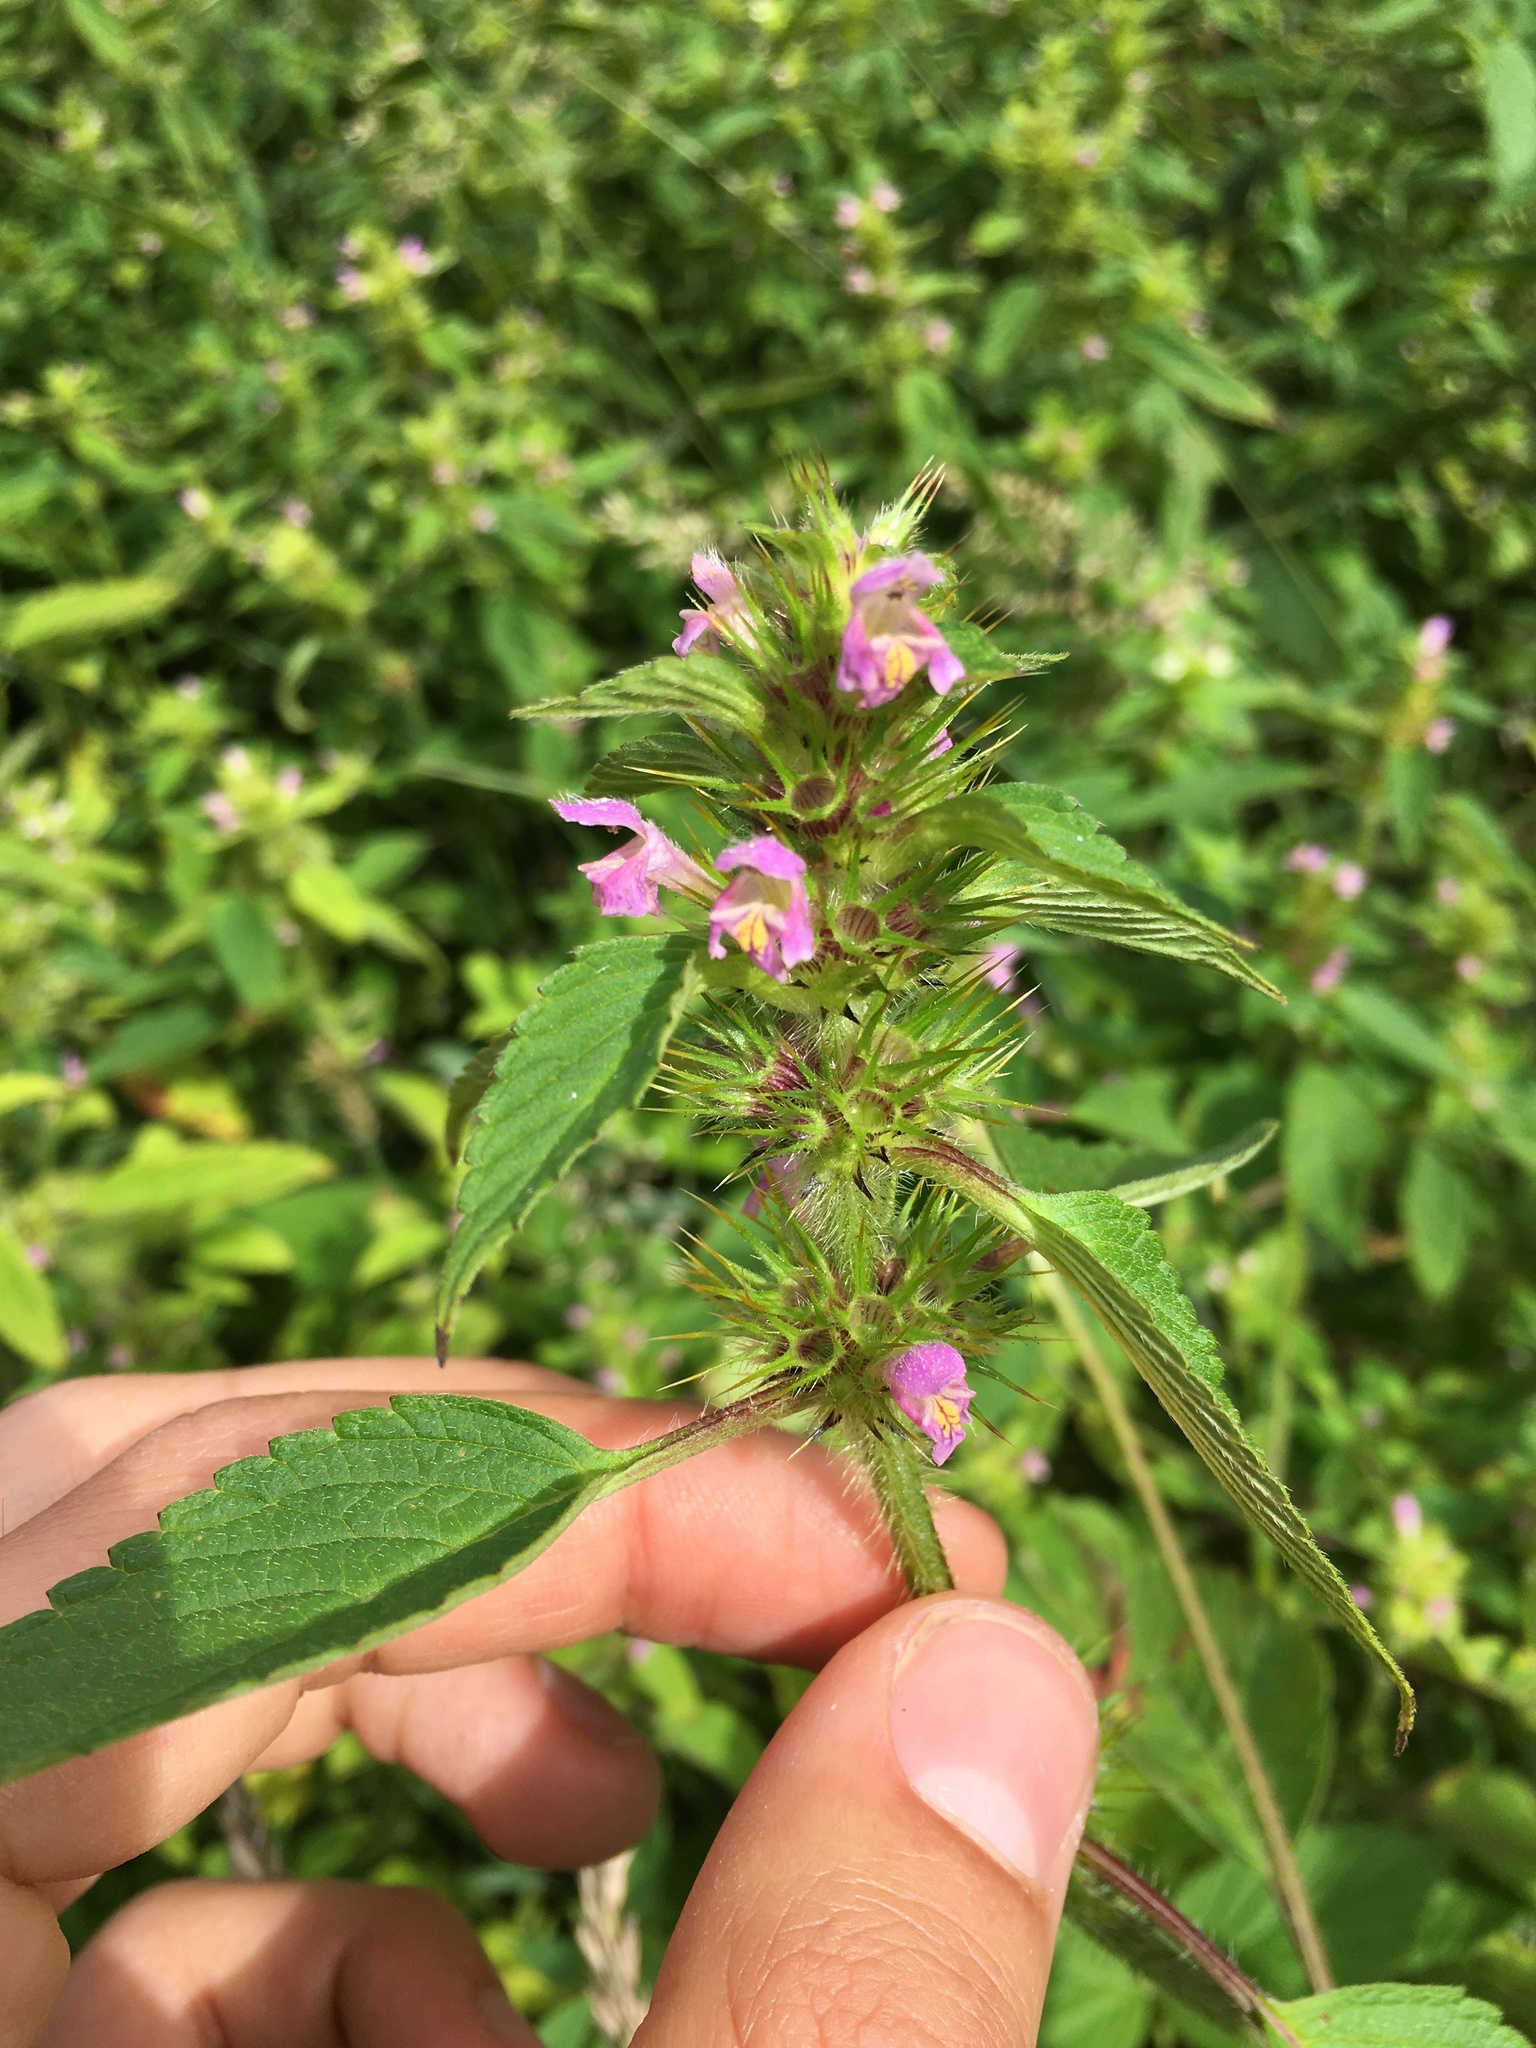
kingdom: Plantae
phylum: Tracheophyta
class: Magnoliopsida
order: Lamiales
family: Lamiaceae
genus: Galeopsis
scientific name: Galeopsis tetrahit
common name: Common hemp-nettle
